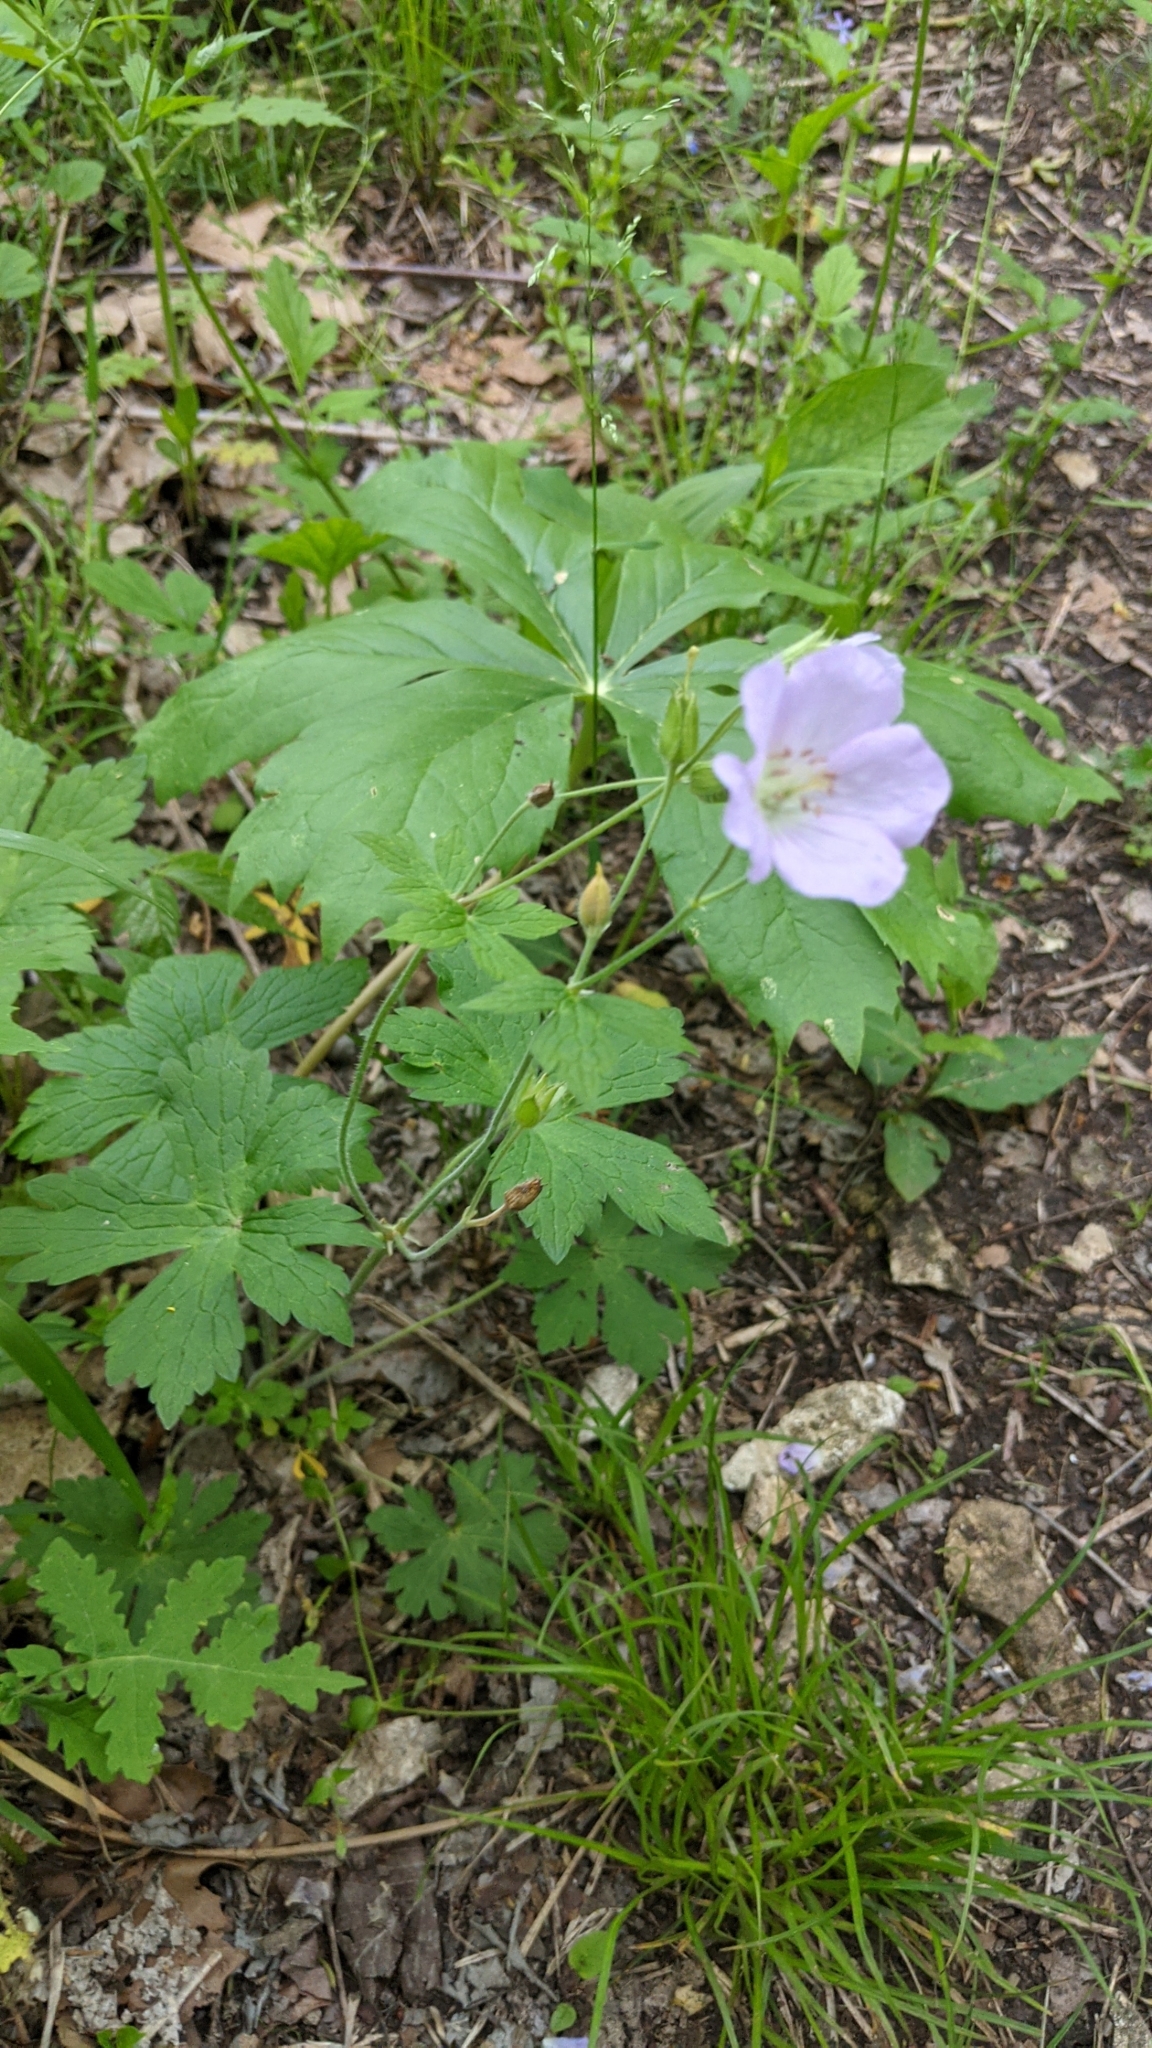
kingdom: Plantae
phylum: Tracheophyta
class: Magnoliopsida
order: Geraniales
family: Geraniaceae
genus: Geranium
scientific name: Geranium maculatum
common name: Spotted geranium
